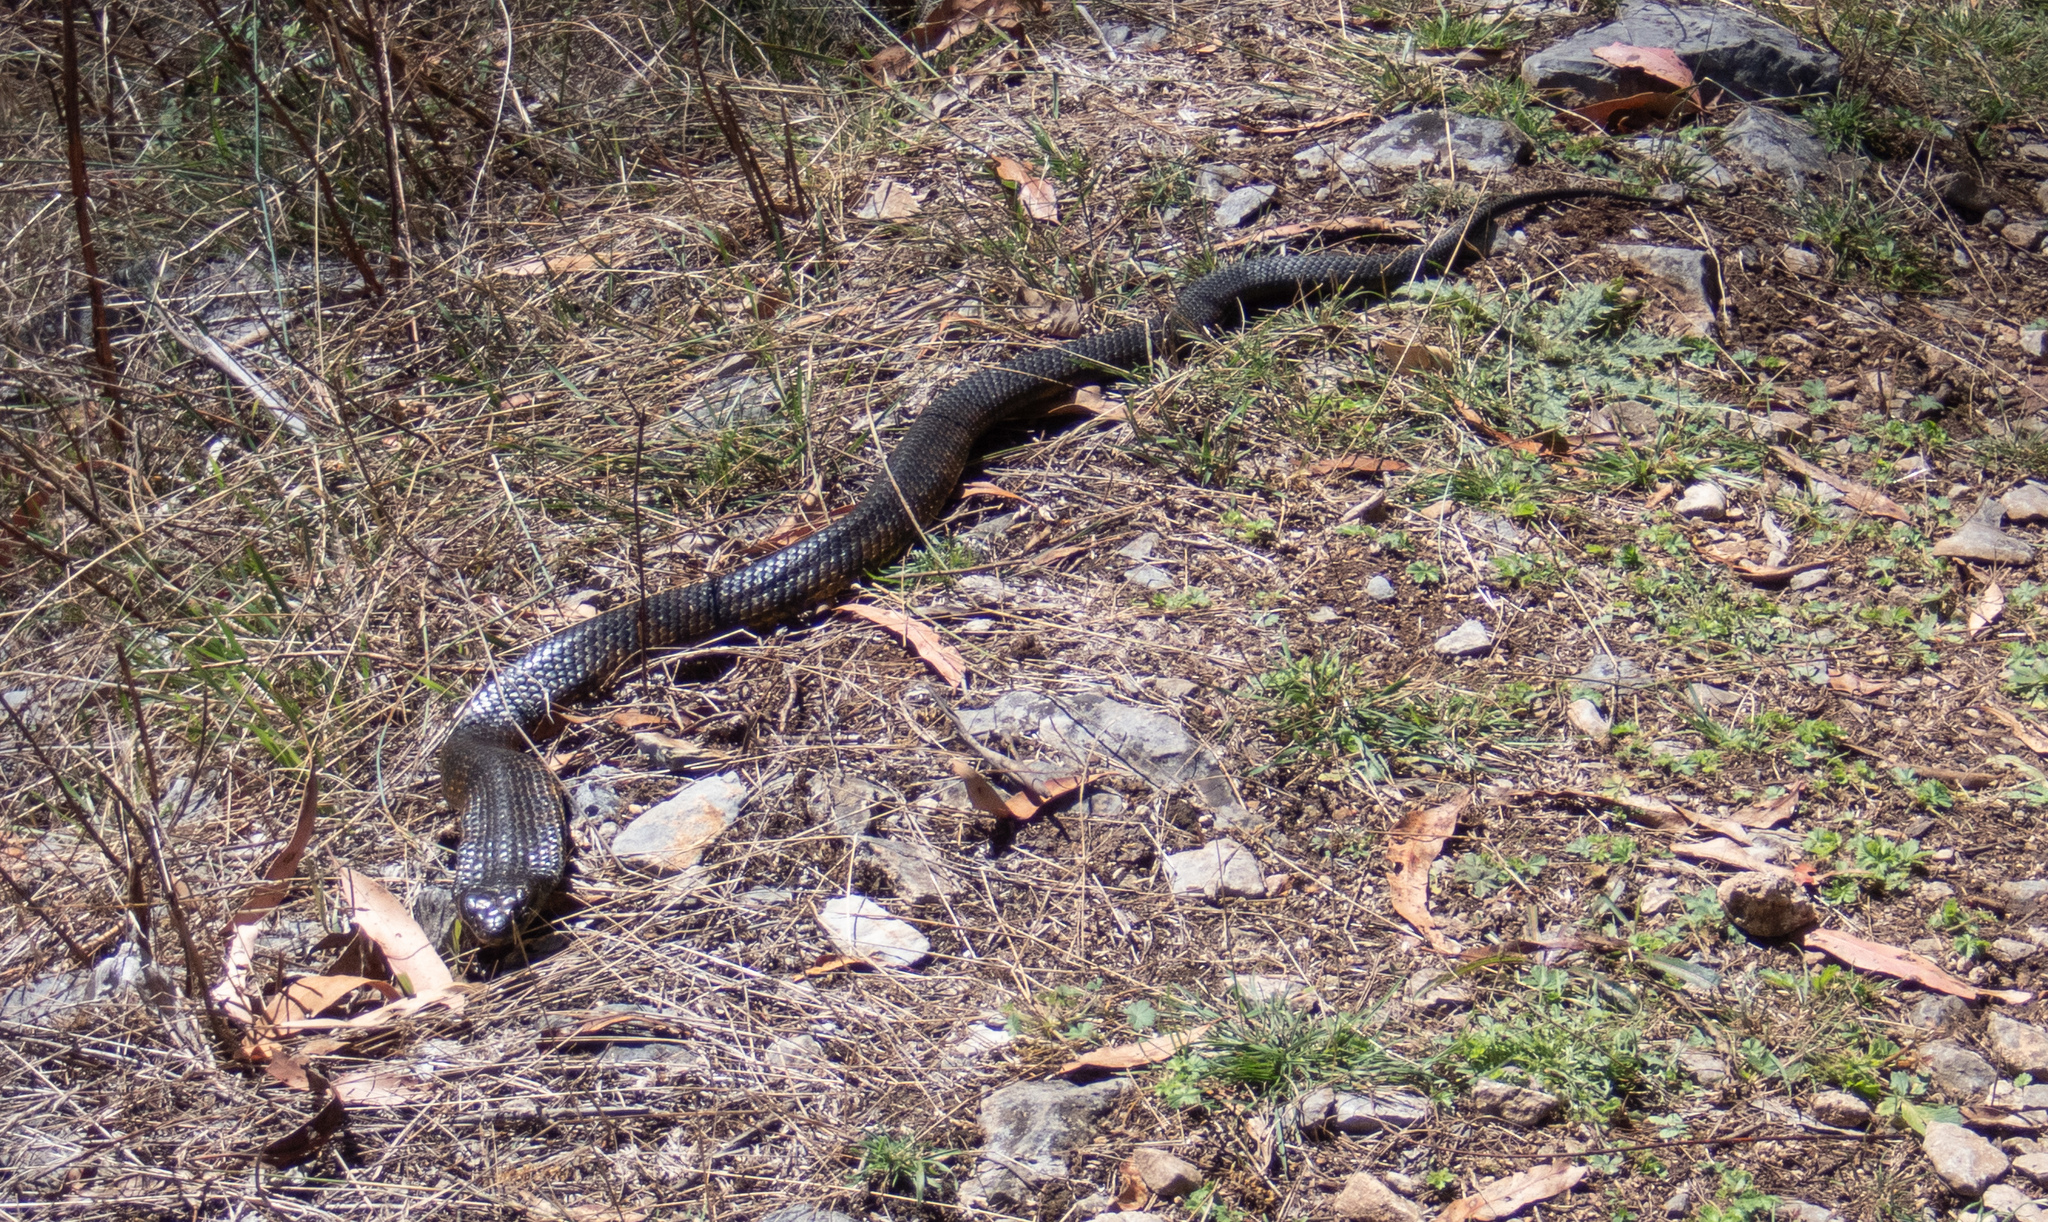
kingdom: Animalia
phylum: Chordata
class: Squamata
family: Elapidae
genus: Notechis
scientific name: Notechis scutatus
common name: Mainland tiger snake
